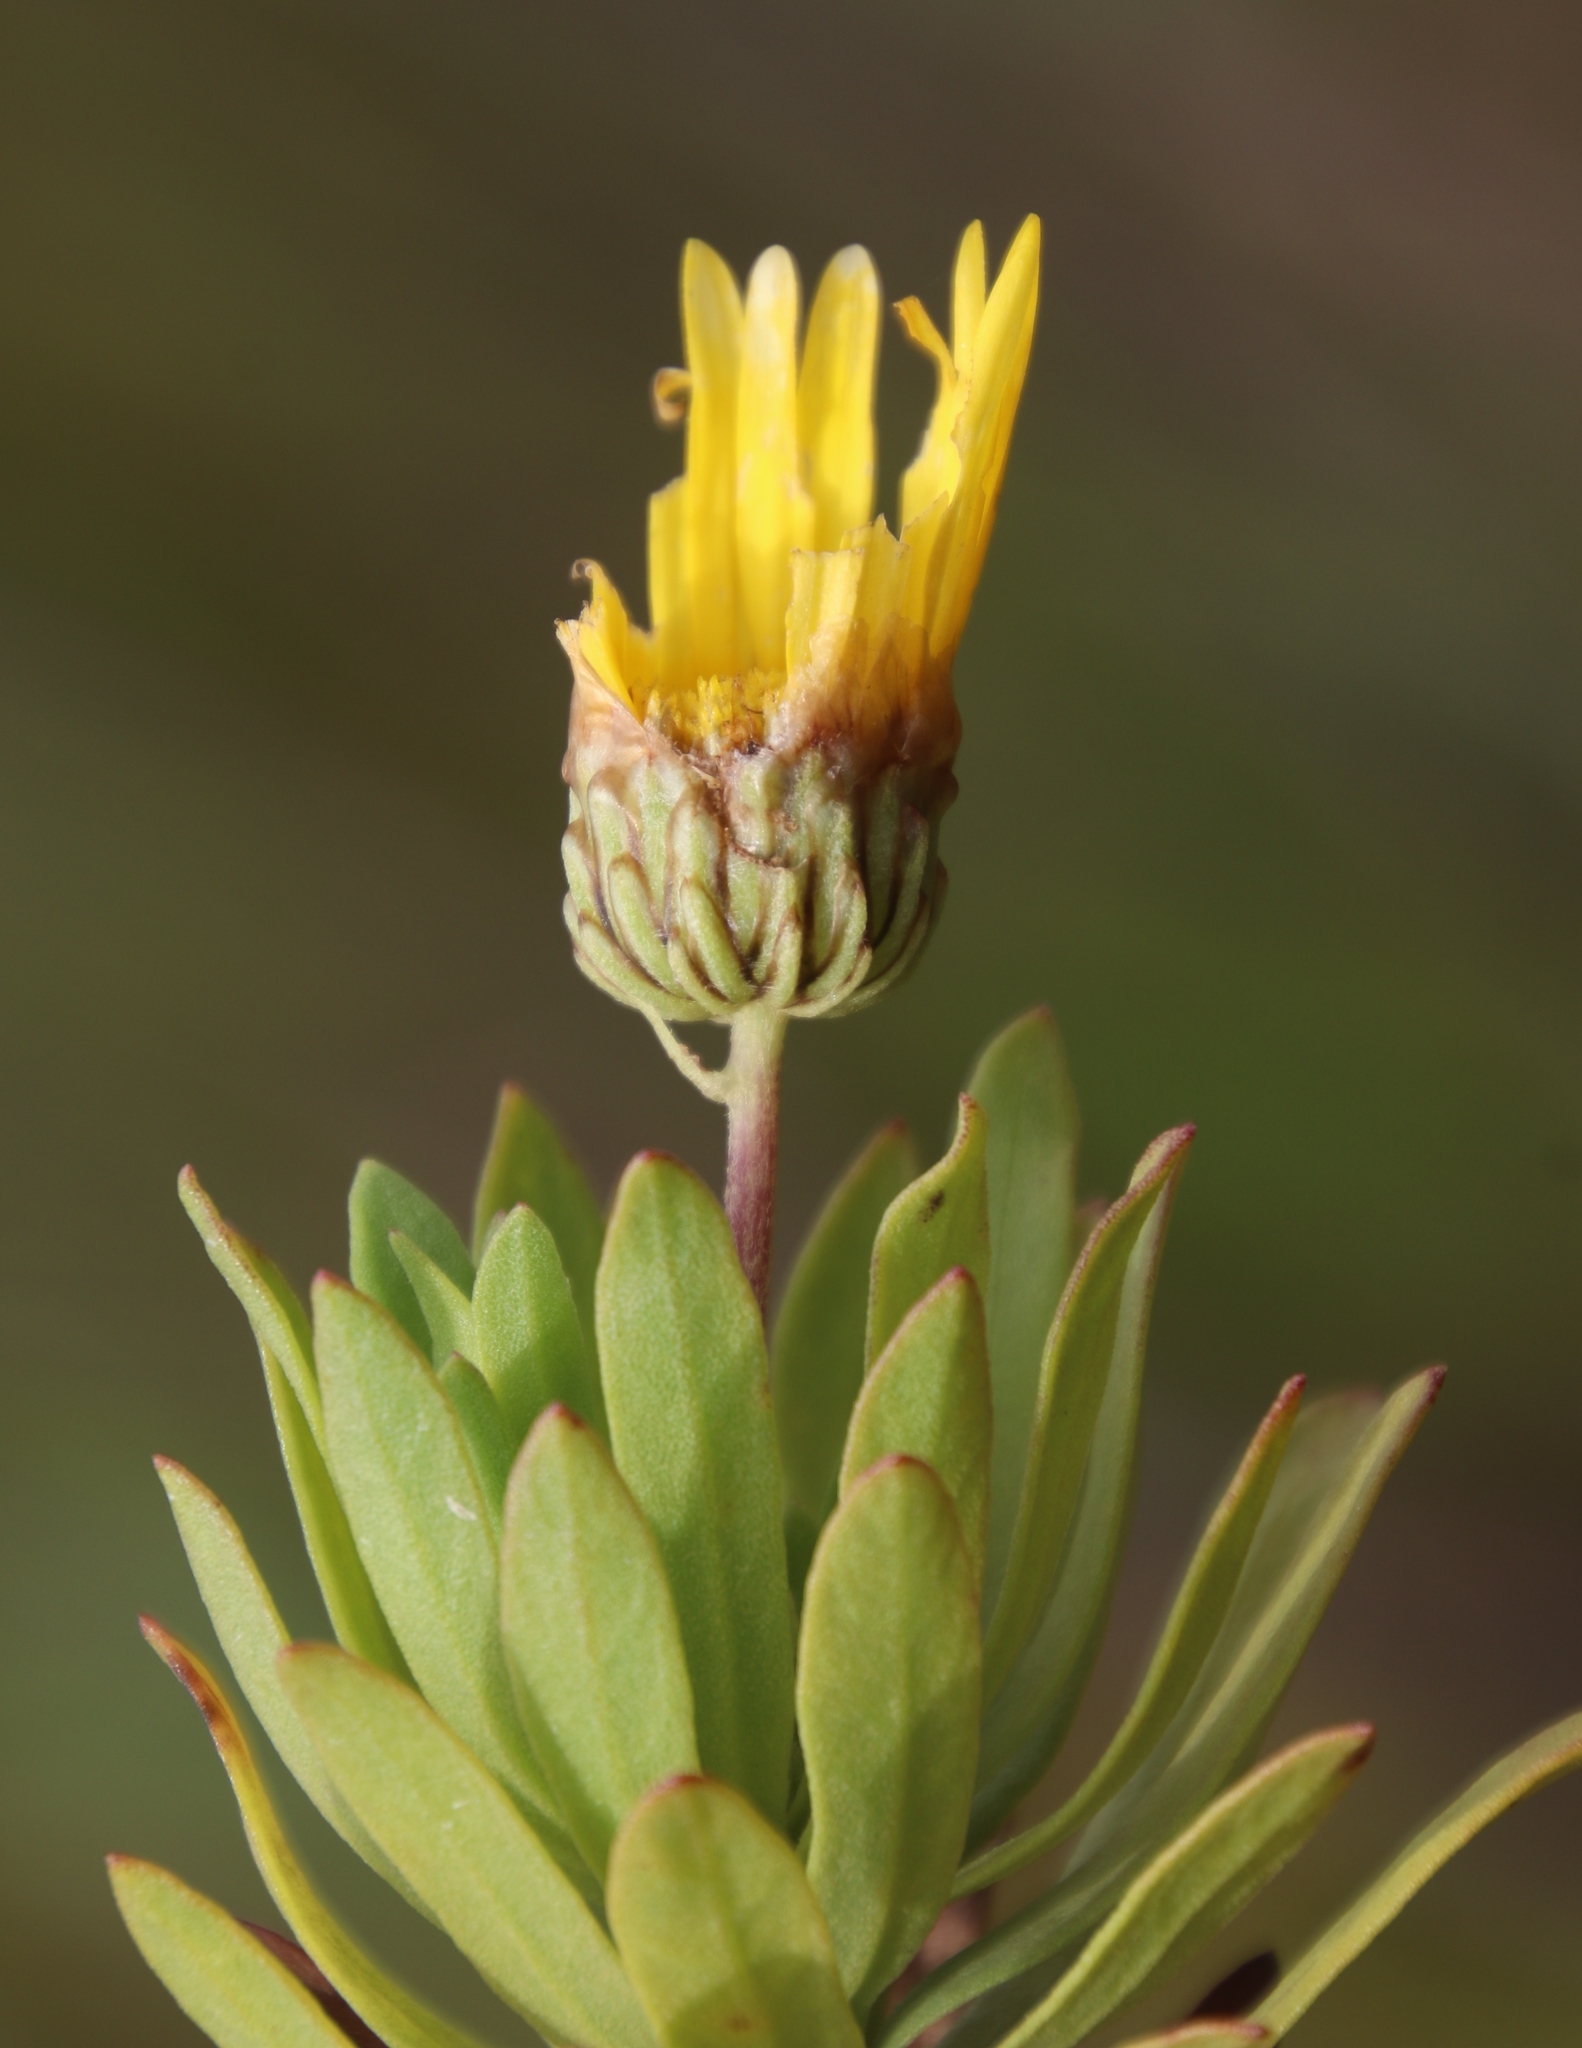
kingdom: Plantae
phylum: Tracheophyta
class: Magnoliopsida
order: Asterales
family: Asteraceae
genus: Ursinia
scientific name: Ursinia eckloniana
